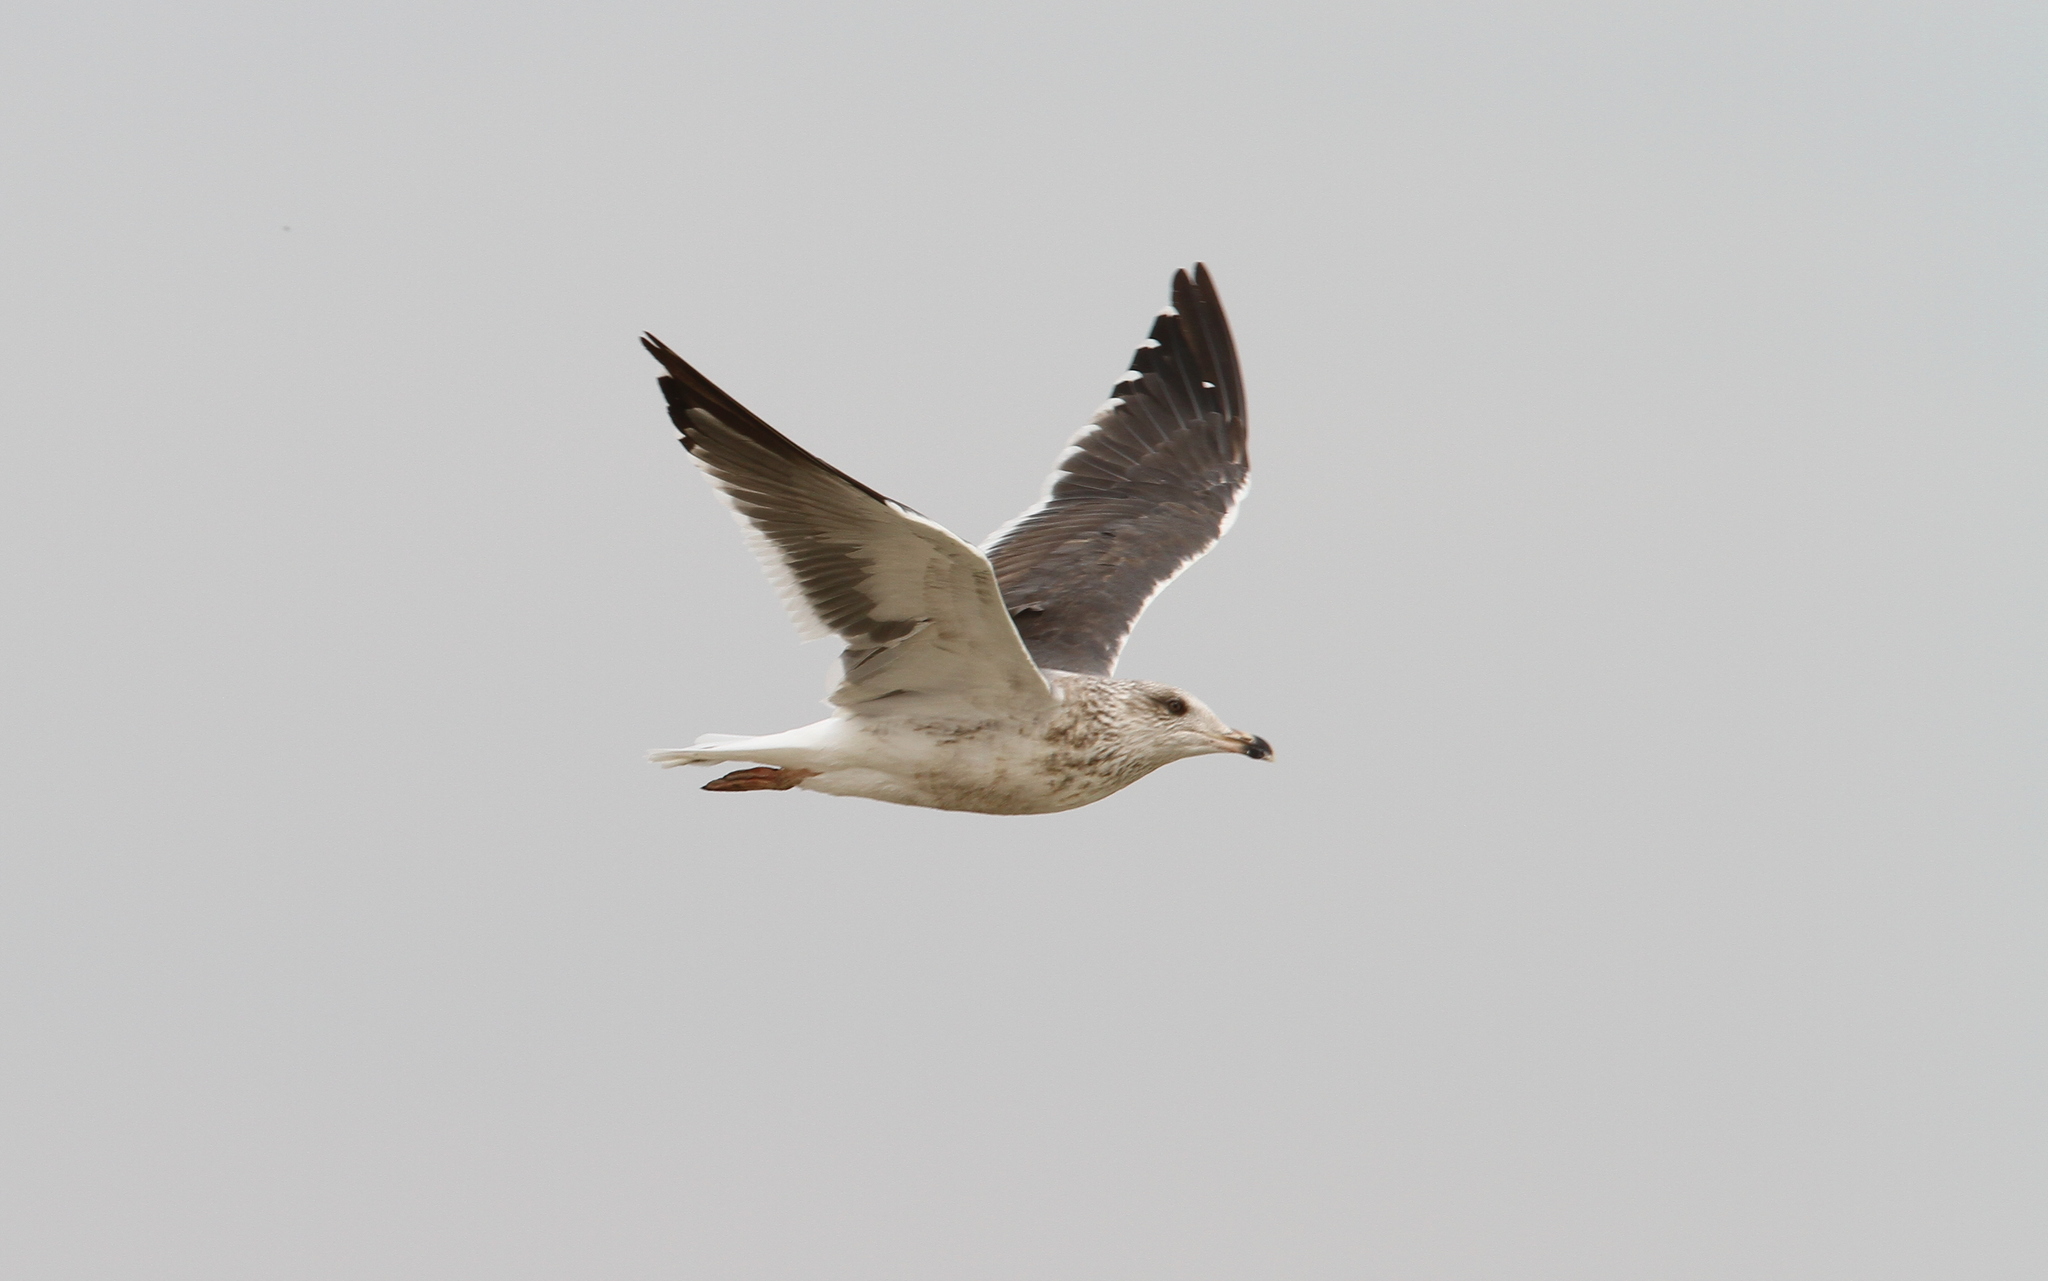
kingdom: Animalia
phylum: Chordata
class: Aves
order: Charadriiformes
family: Laridae
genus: Larus
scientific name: Larus fuscus
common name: Lesser black-backed gull
